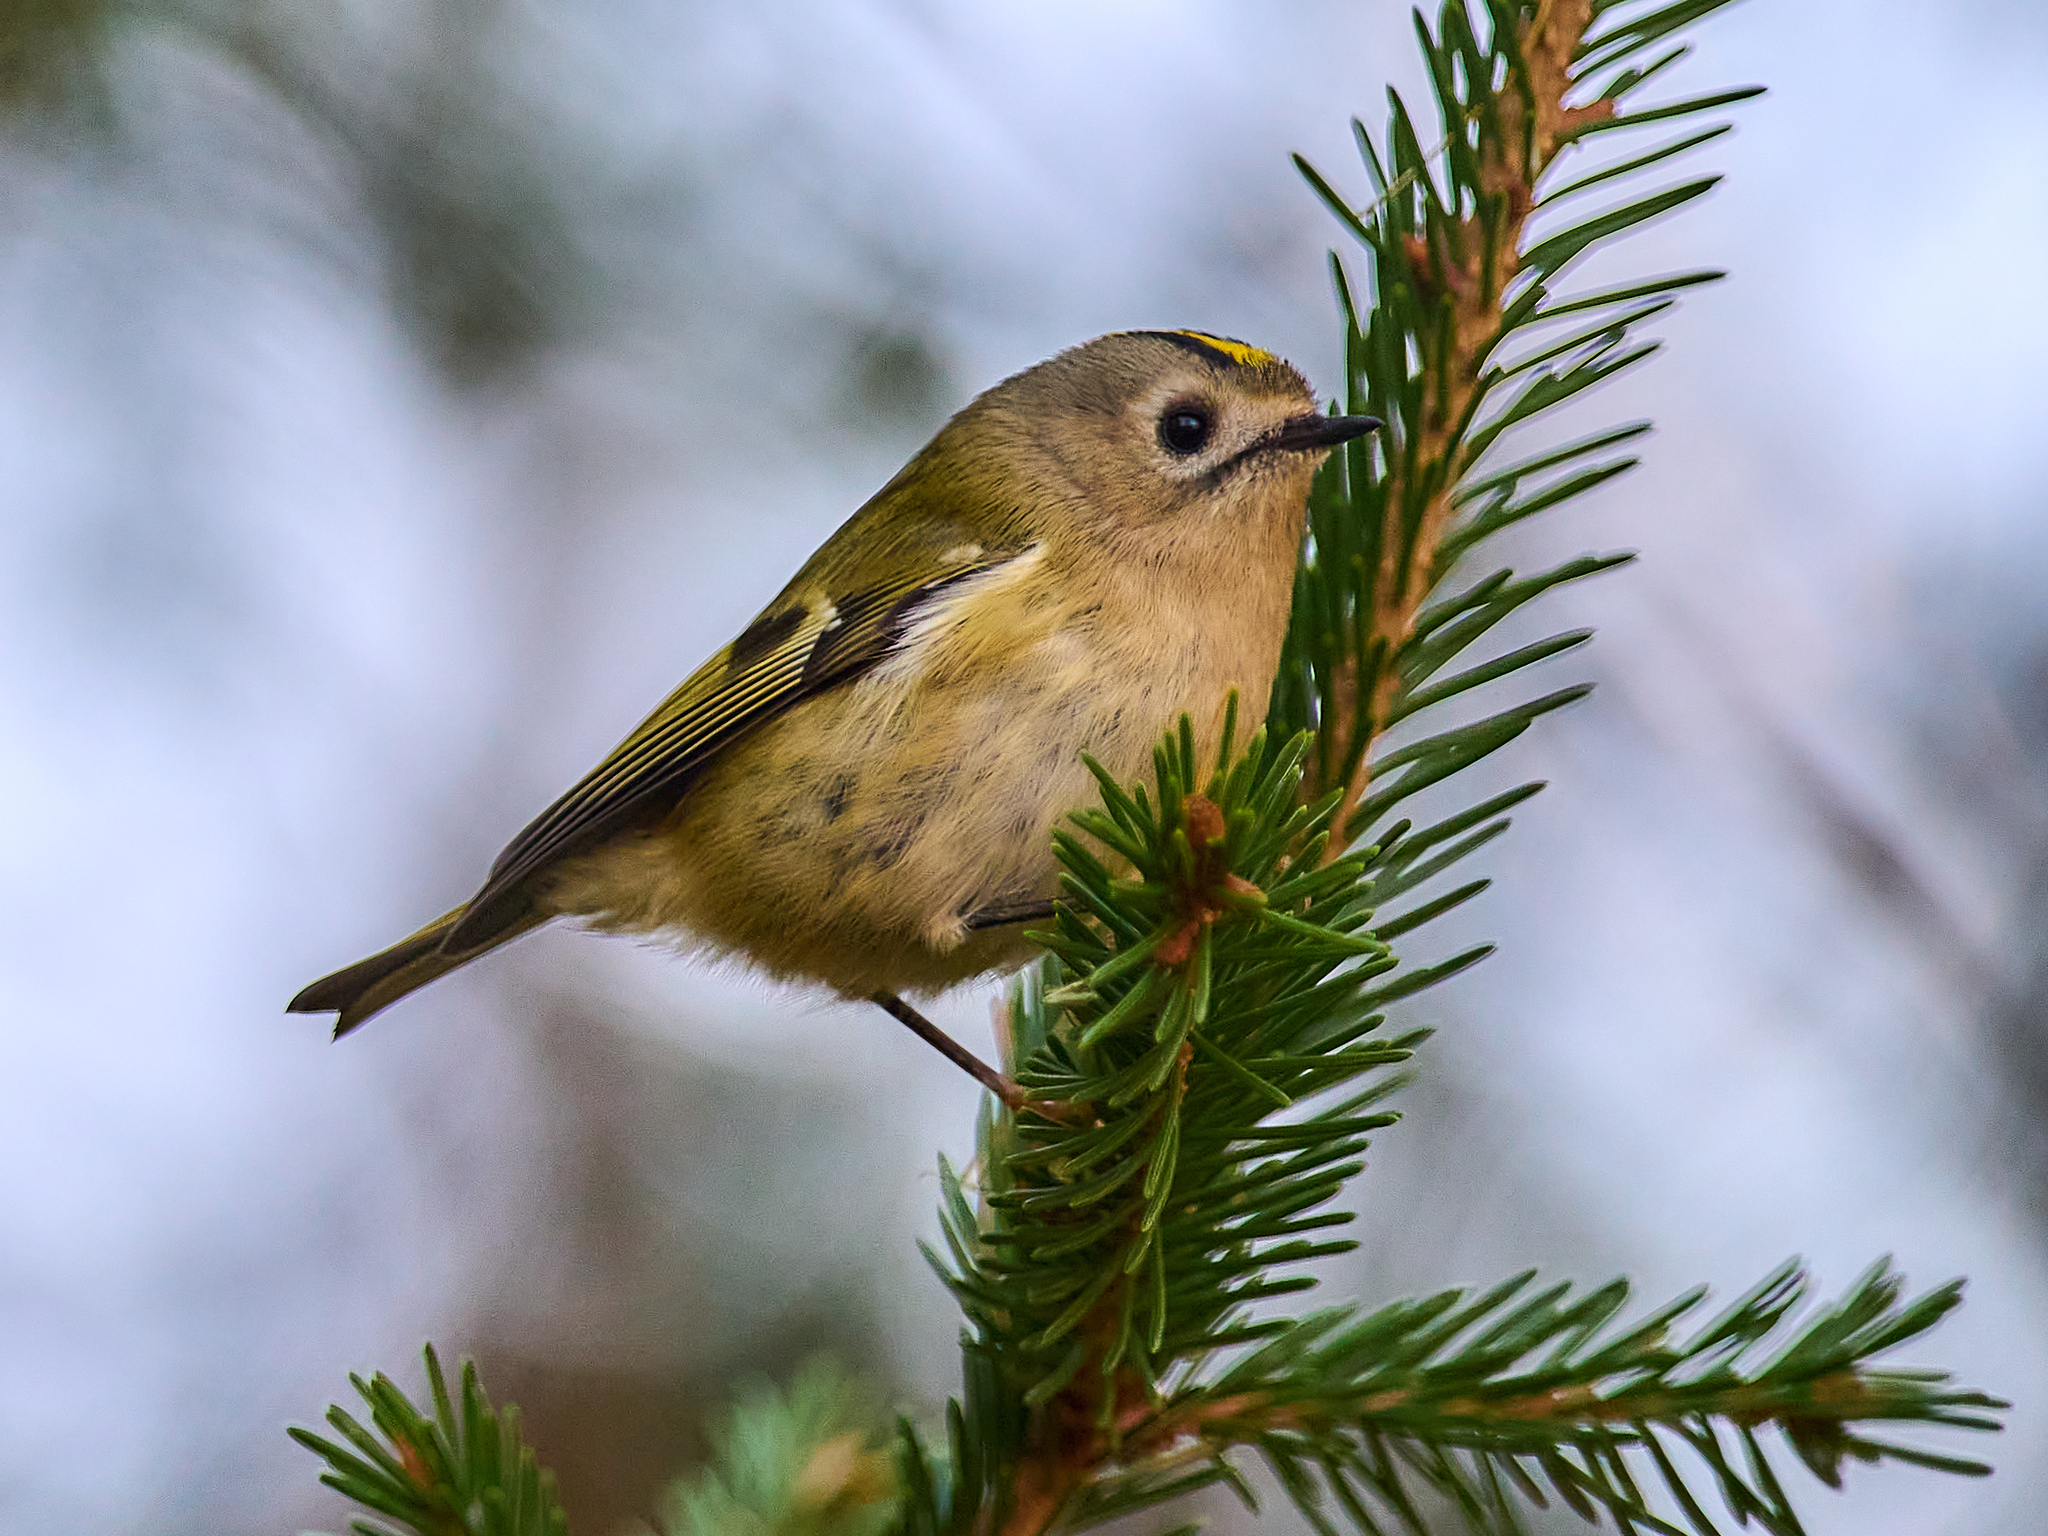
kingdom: Animalia
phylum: Chordata
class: Aves
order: Passeriformes
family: Regulidae
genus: Regulus
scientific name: Regulus regulus
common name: Goldcrest
